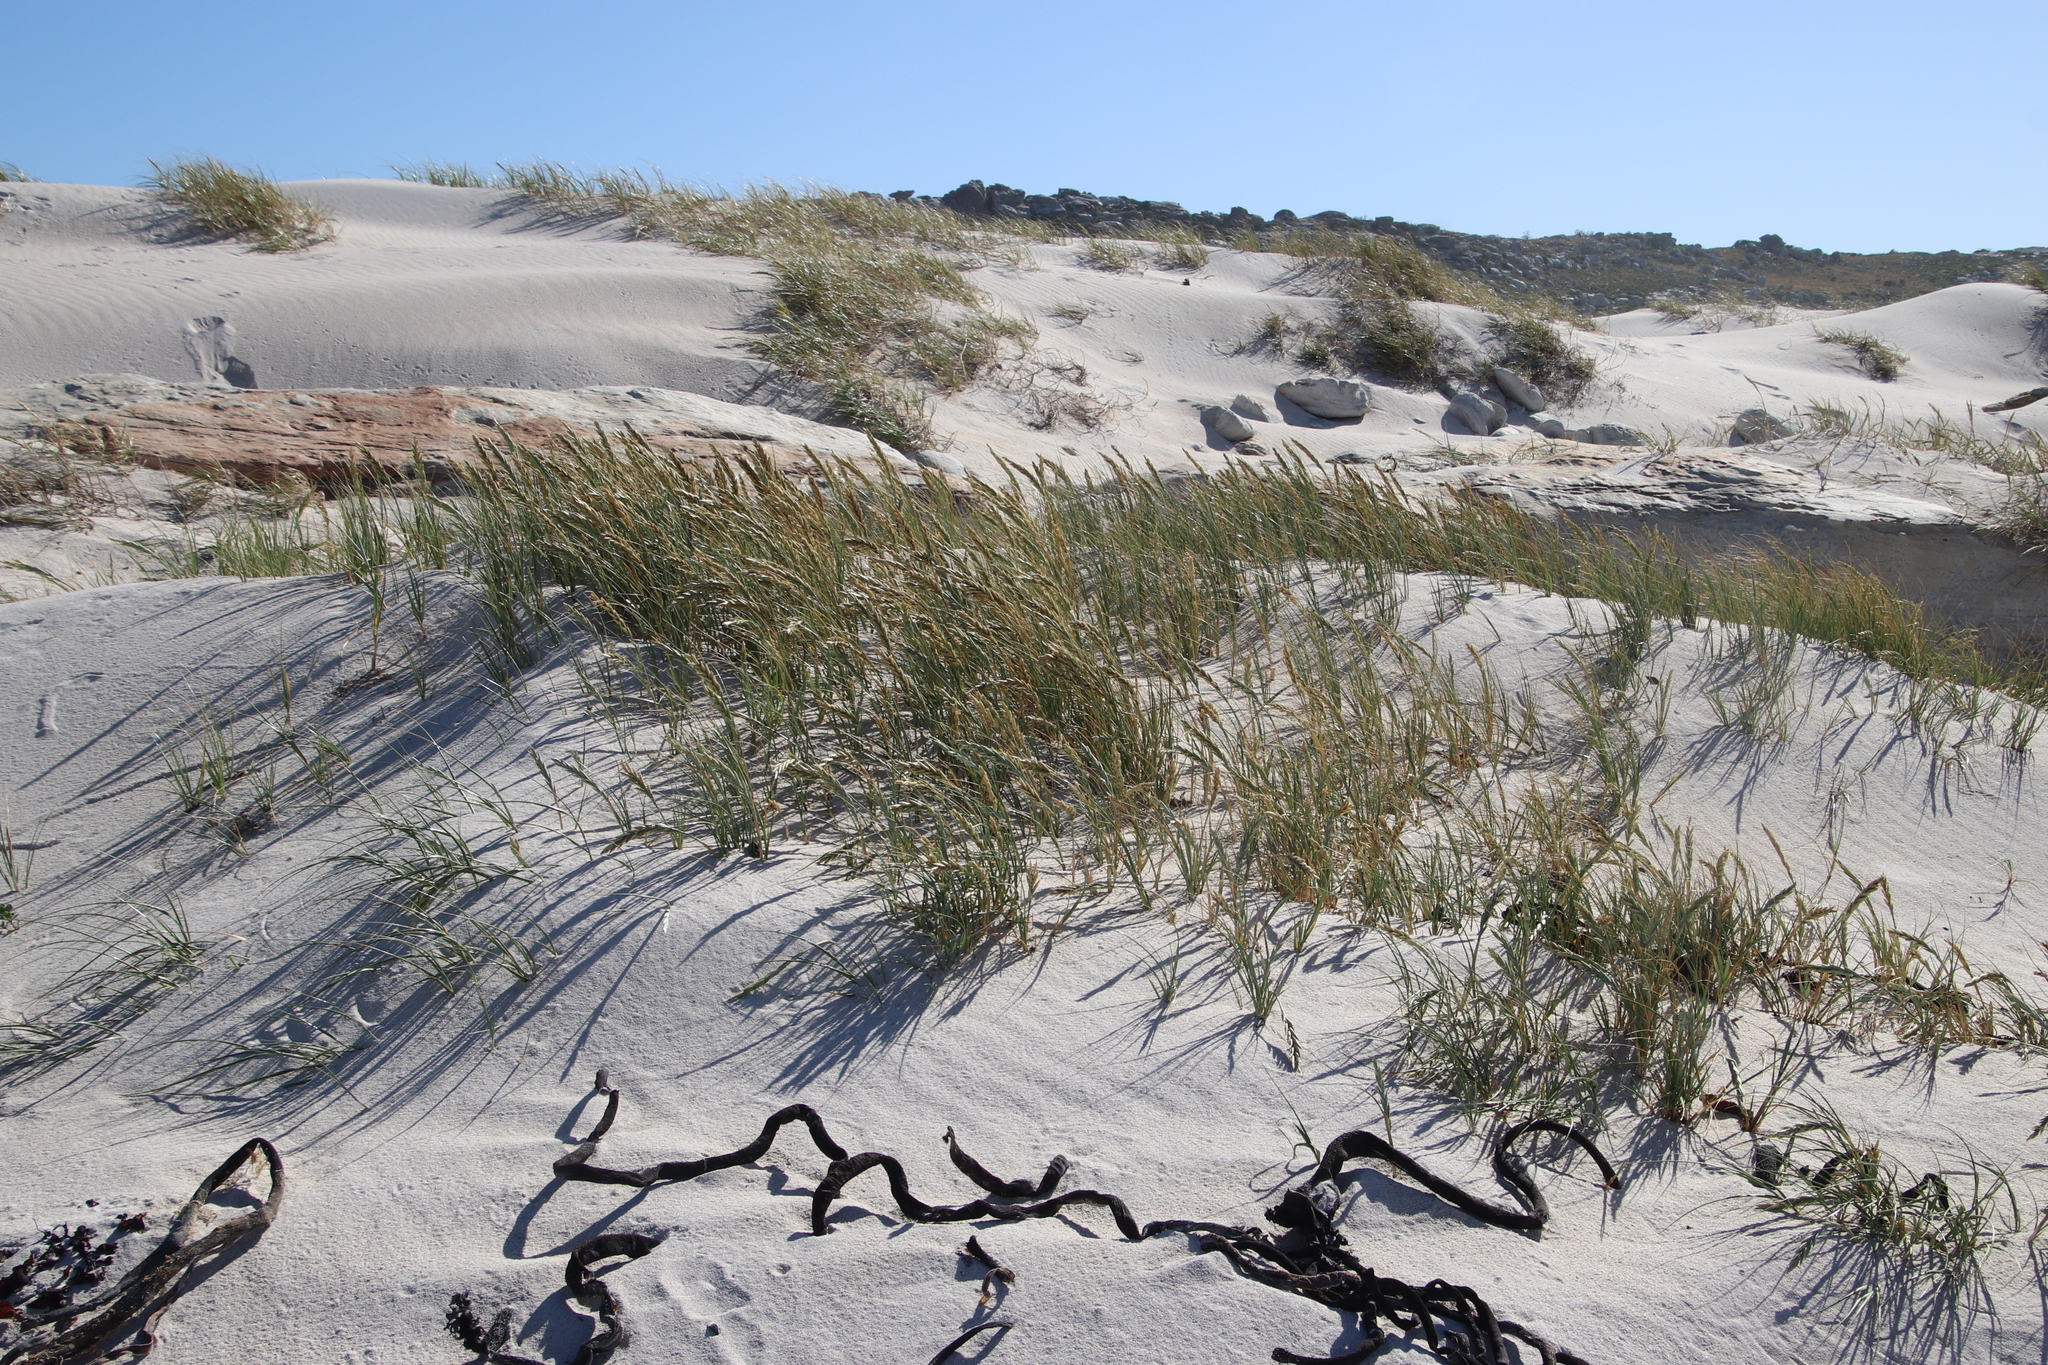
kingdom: Plantae
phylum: Tracheophyta
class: Liliopsida
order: Poales
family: Poaceae
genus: Thinopyrum
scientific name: Thinopyrum distichum
